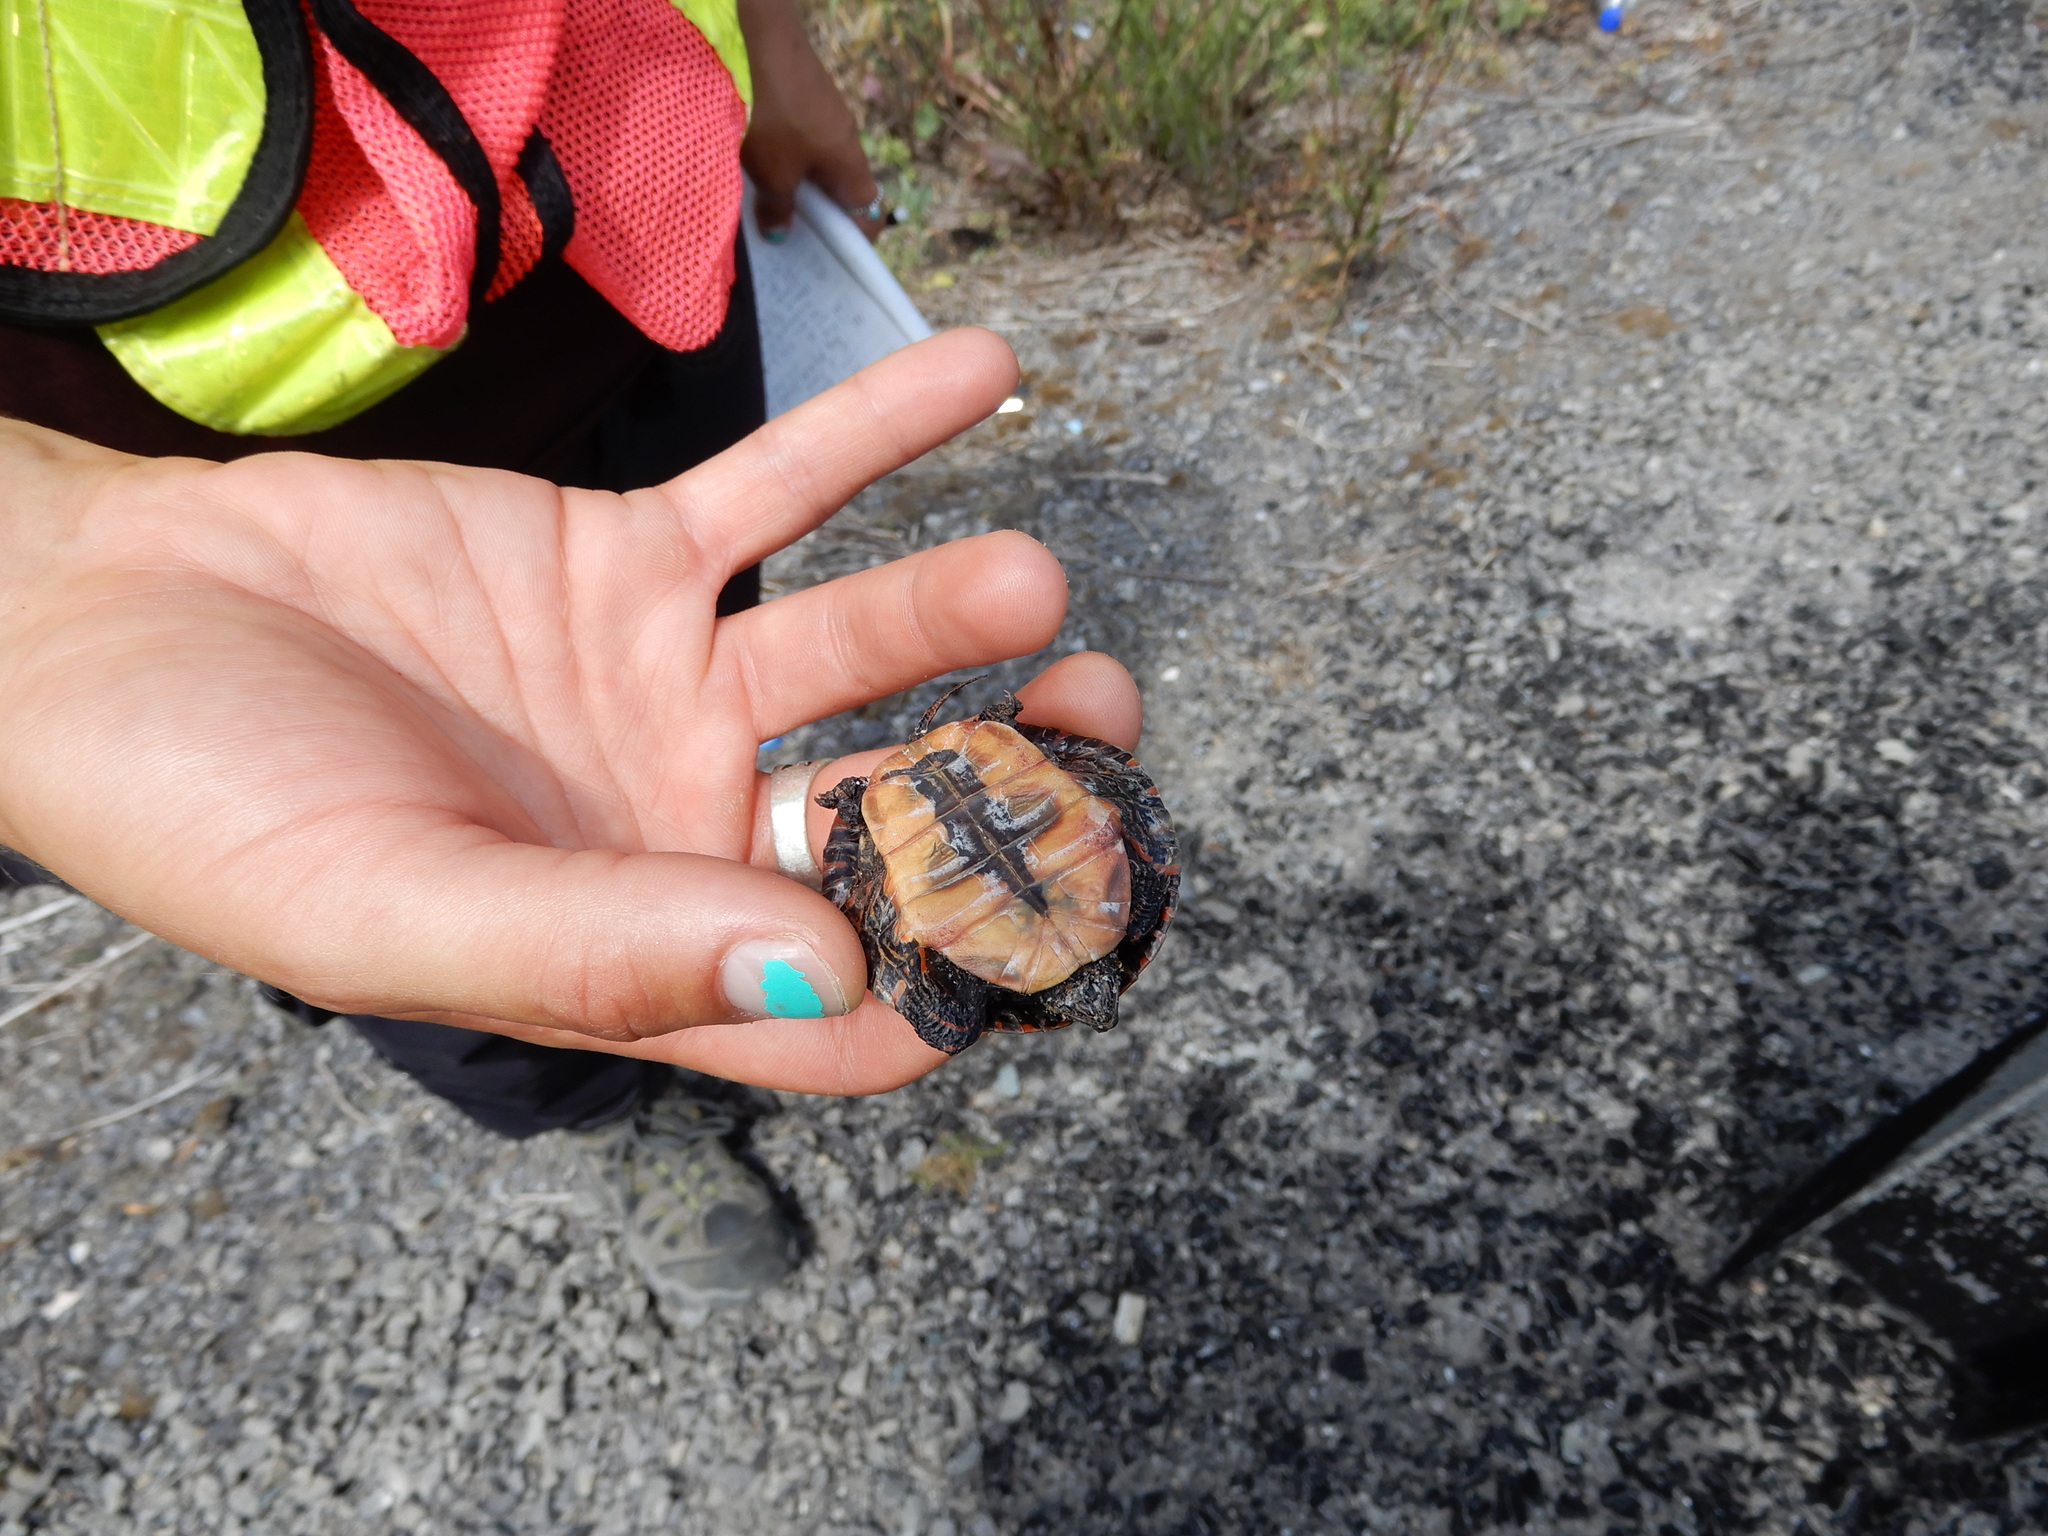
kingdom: Animalia
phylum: Chordata
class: Testudines
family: Emydidae
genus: Chrysemys
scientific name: Chrysemys picta
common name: Painted turtle
